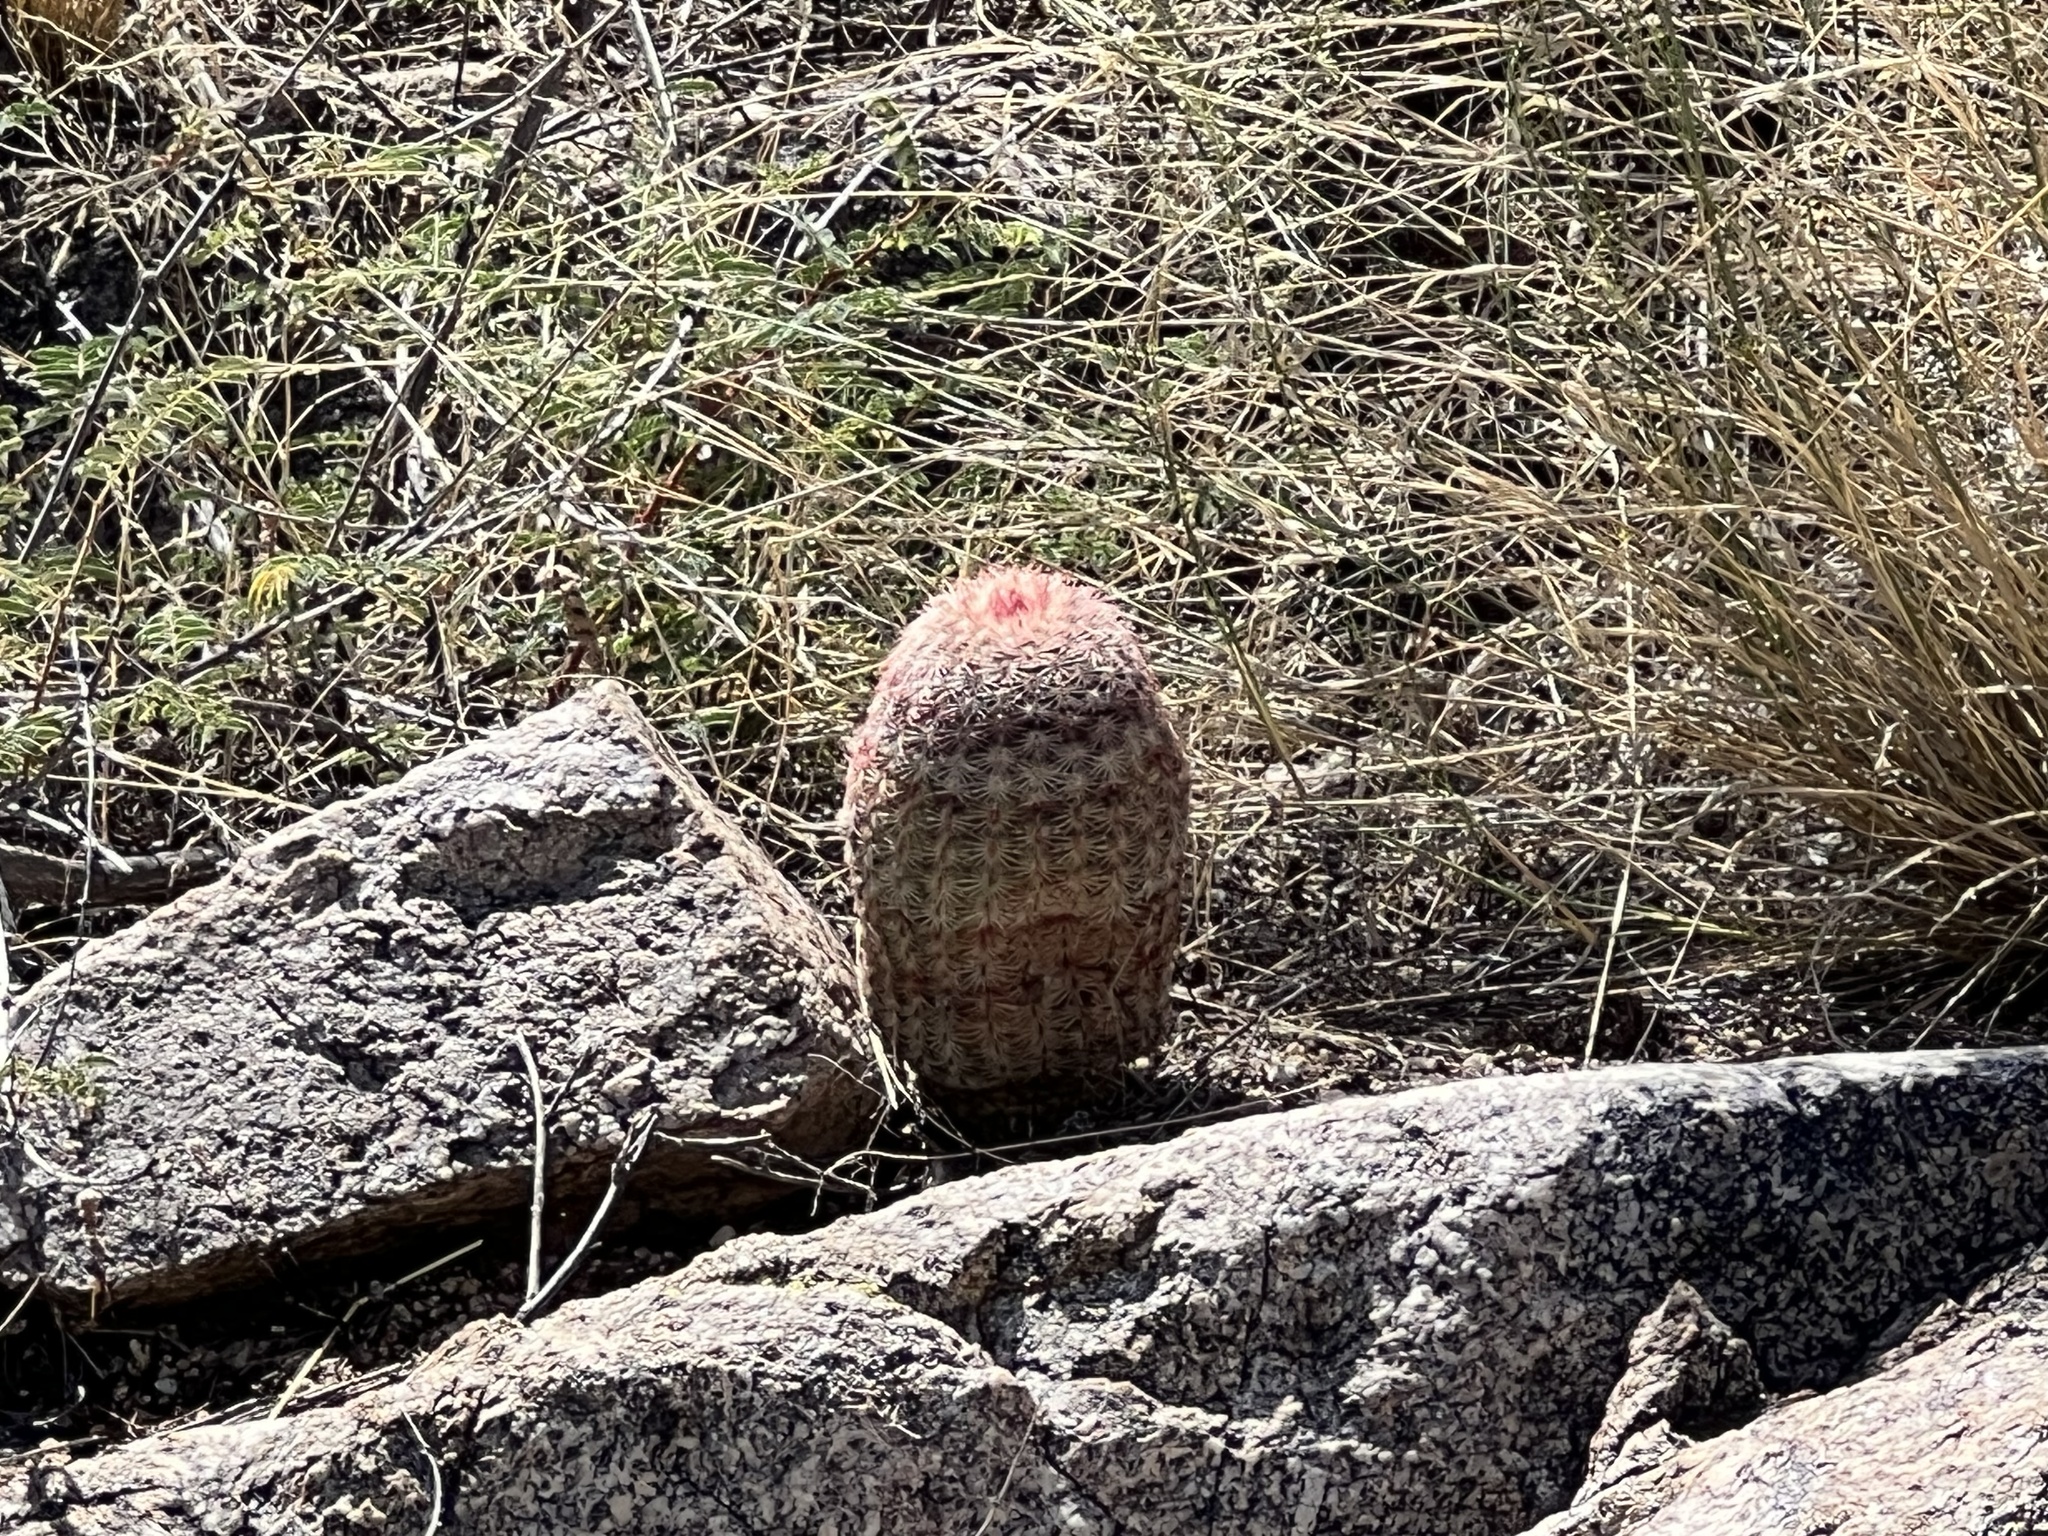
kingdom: Plantae
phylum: Tracheophyta
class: Magnoliopsida
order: Caryophyllales
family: Cactaceae
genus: Echinocereus
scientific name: Echinocereus rigidissimus
